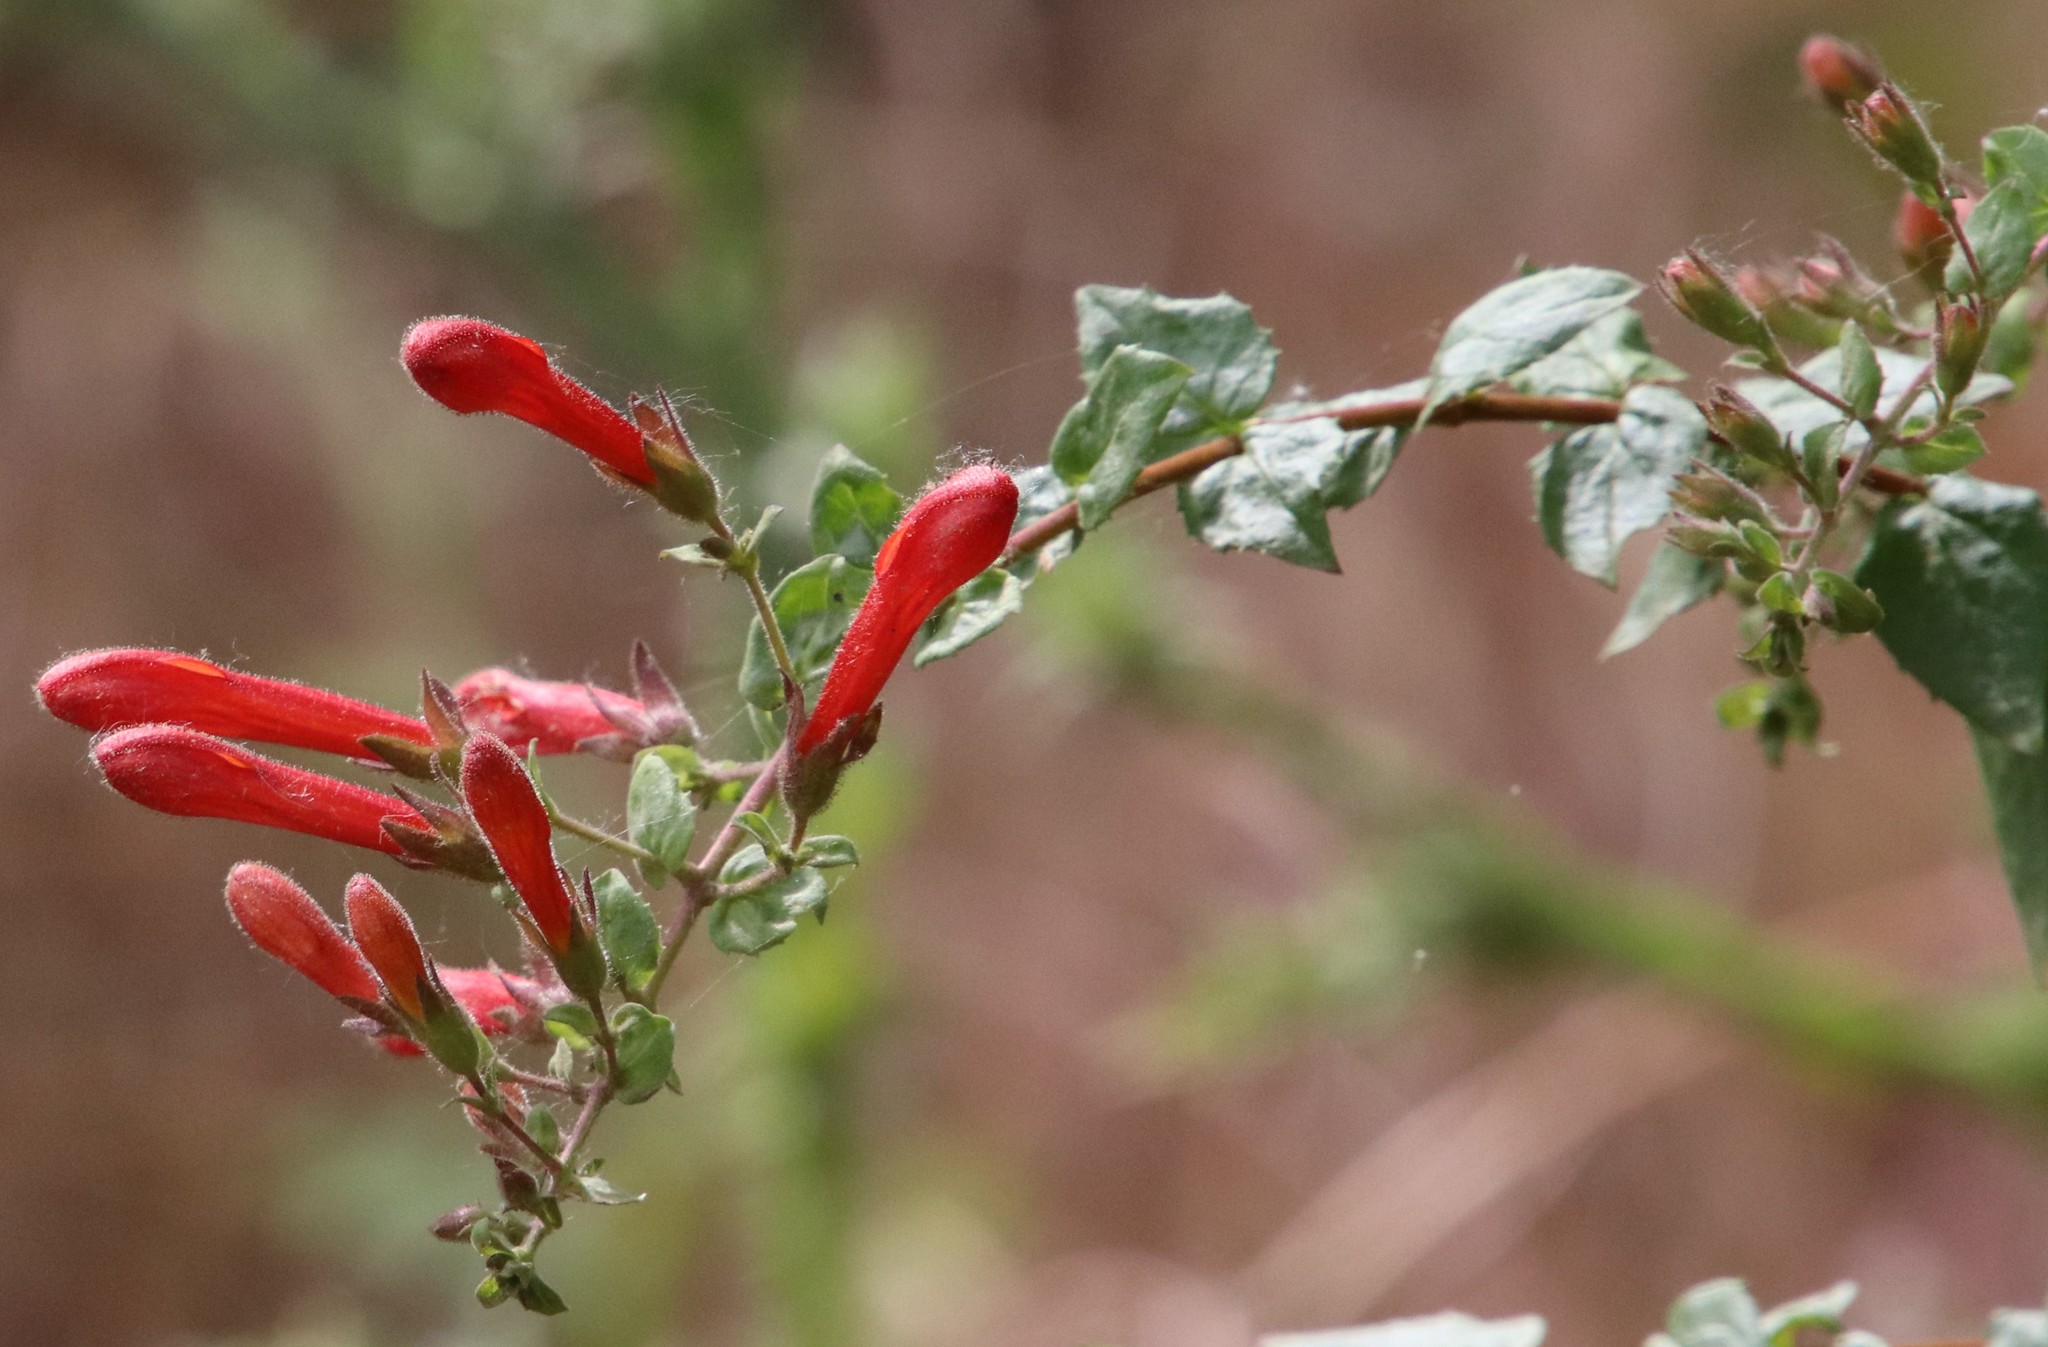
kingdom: Plantae
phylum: Tracheophyta
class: Magnoliopsida
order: Lamiales
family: Plantaginaceae
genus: Keckiella
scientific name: Keckiella cordifolia
